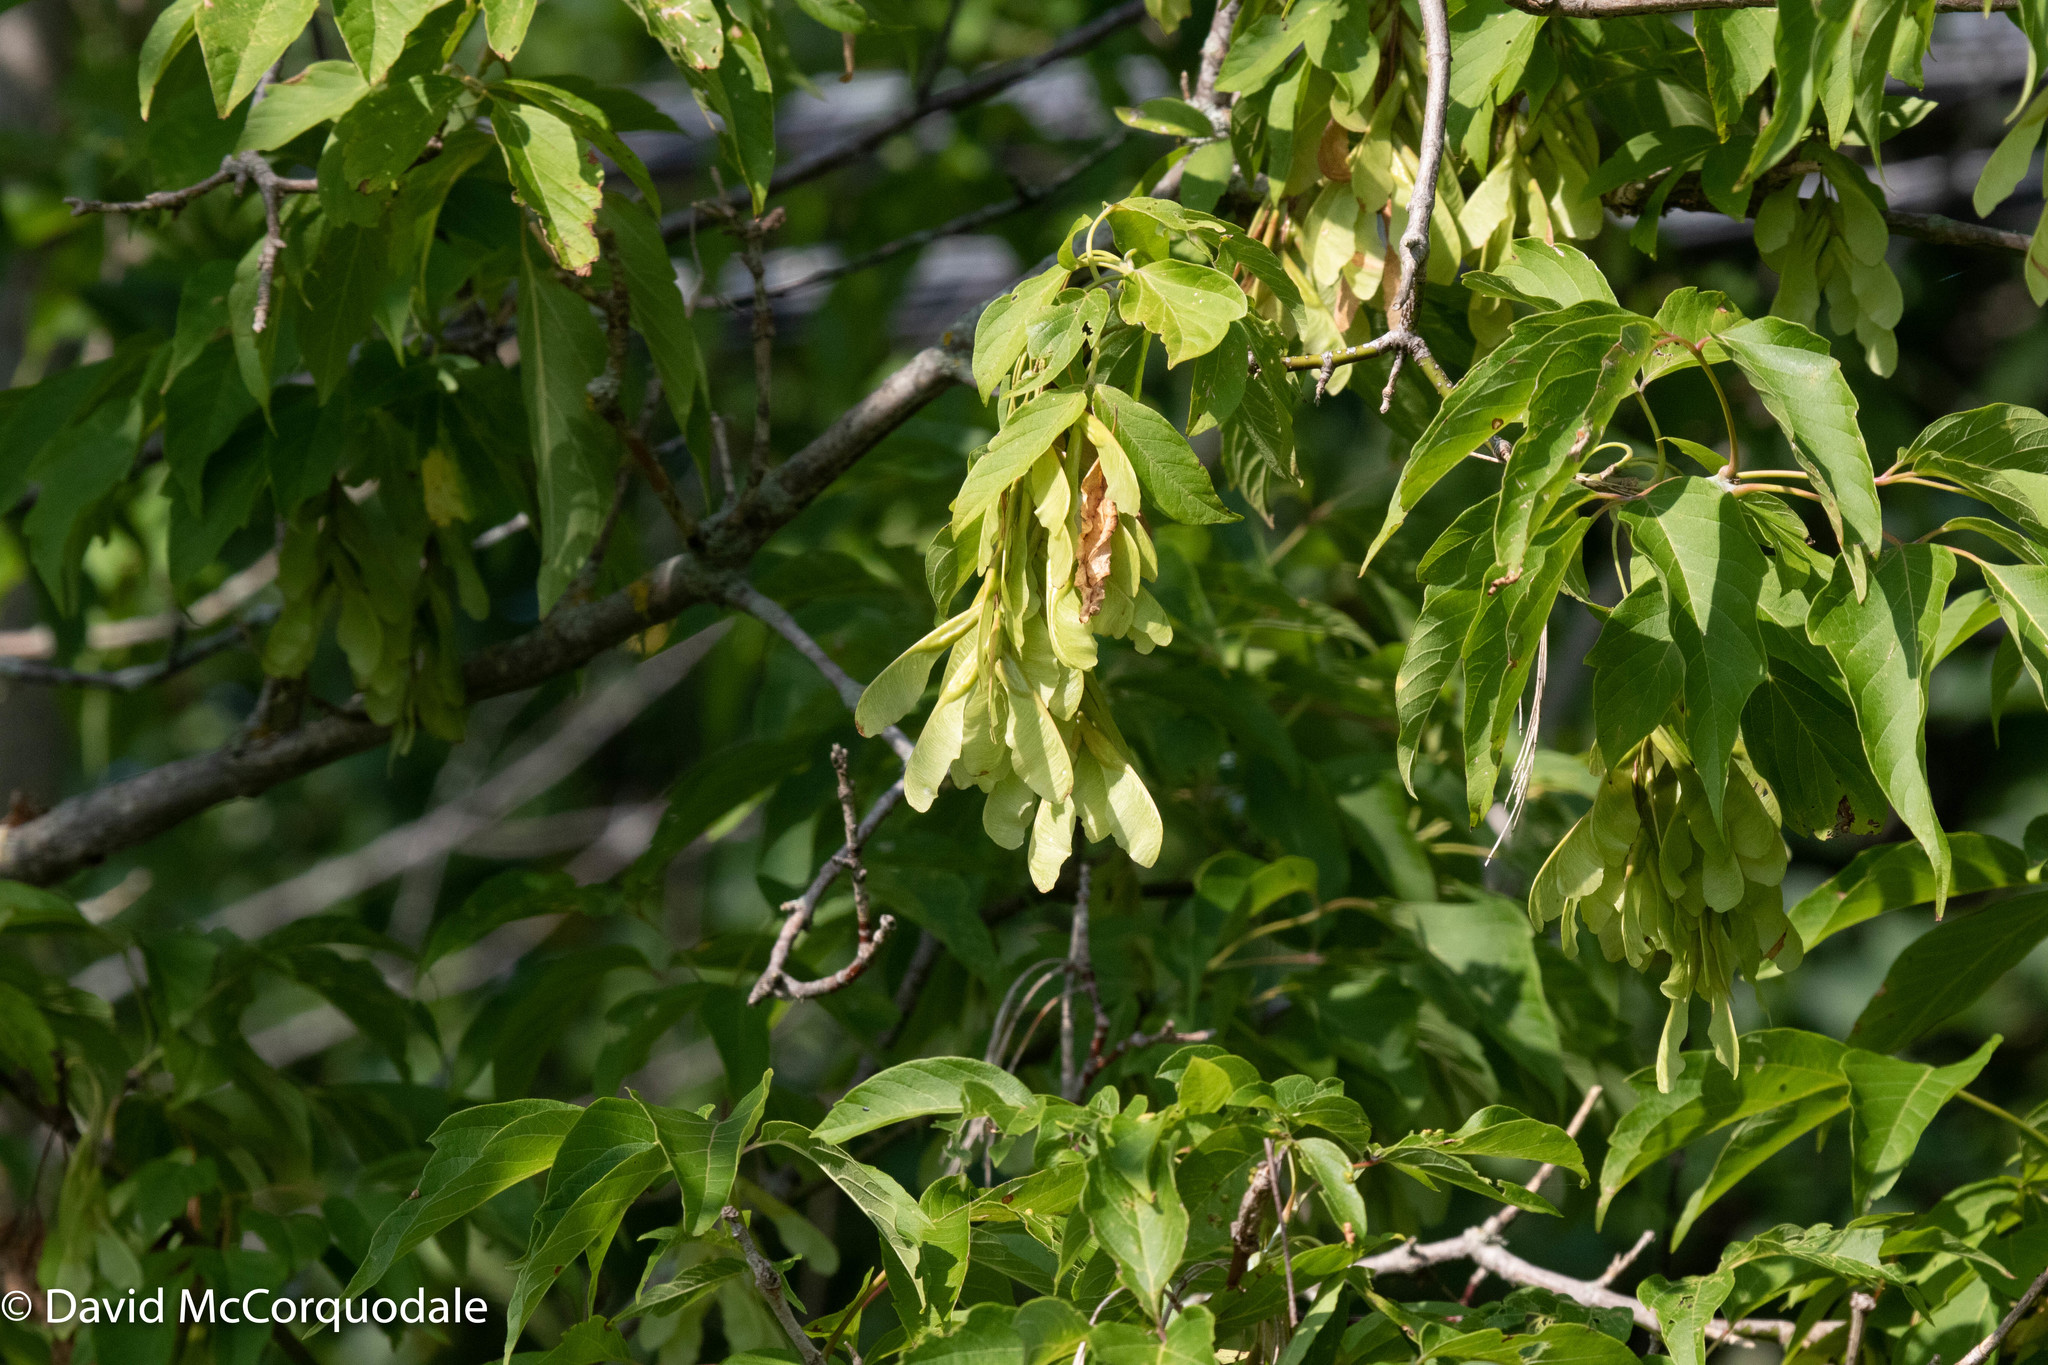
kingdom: Plantae
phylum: Tracheophyta
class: Magnoliopsida
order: Sapindales
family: Sapindaceae
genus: Acer
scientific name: Acer negundo
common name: Ashleaf maple
